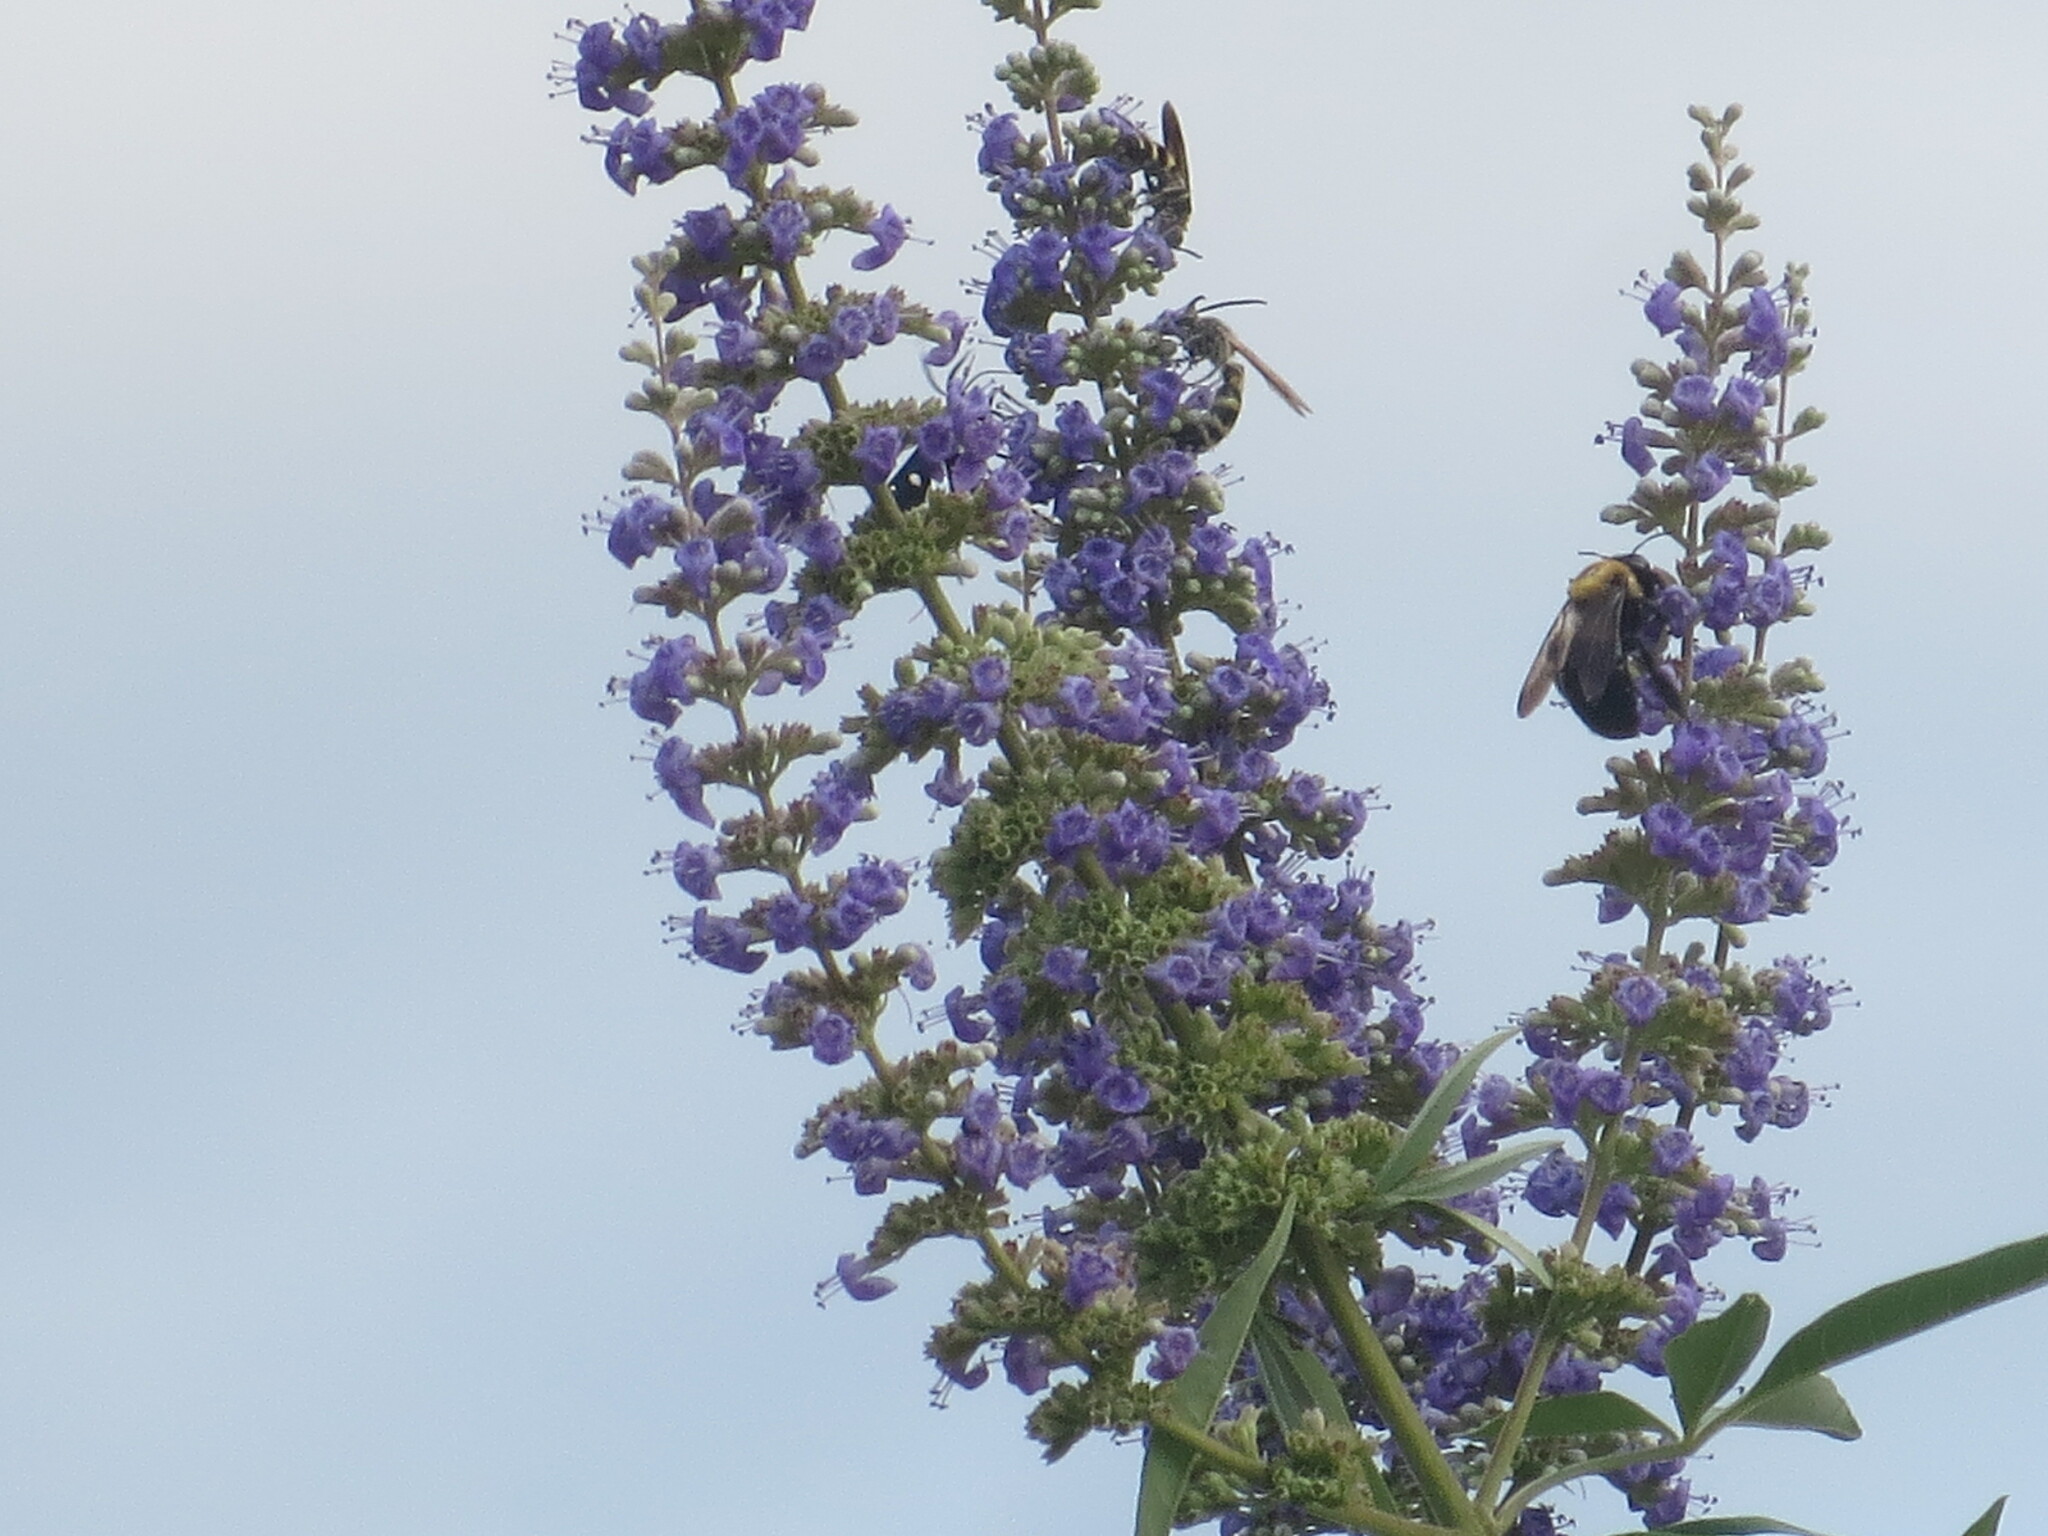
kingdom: Animalia
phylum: Arthropoda
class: Insecta
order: Hymenoptera
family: Apidae
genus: Xylocopa
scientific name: Xylocopa virginica
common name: Carpenter bee
